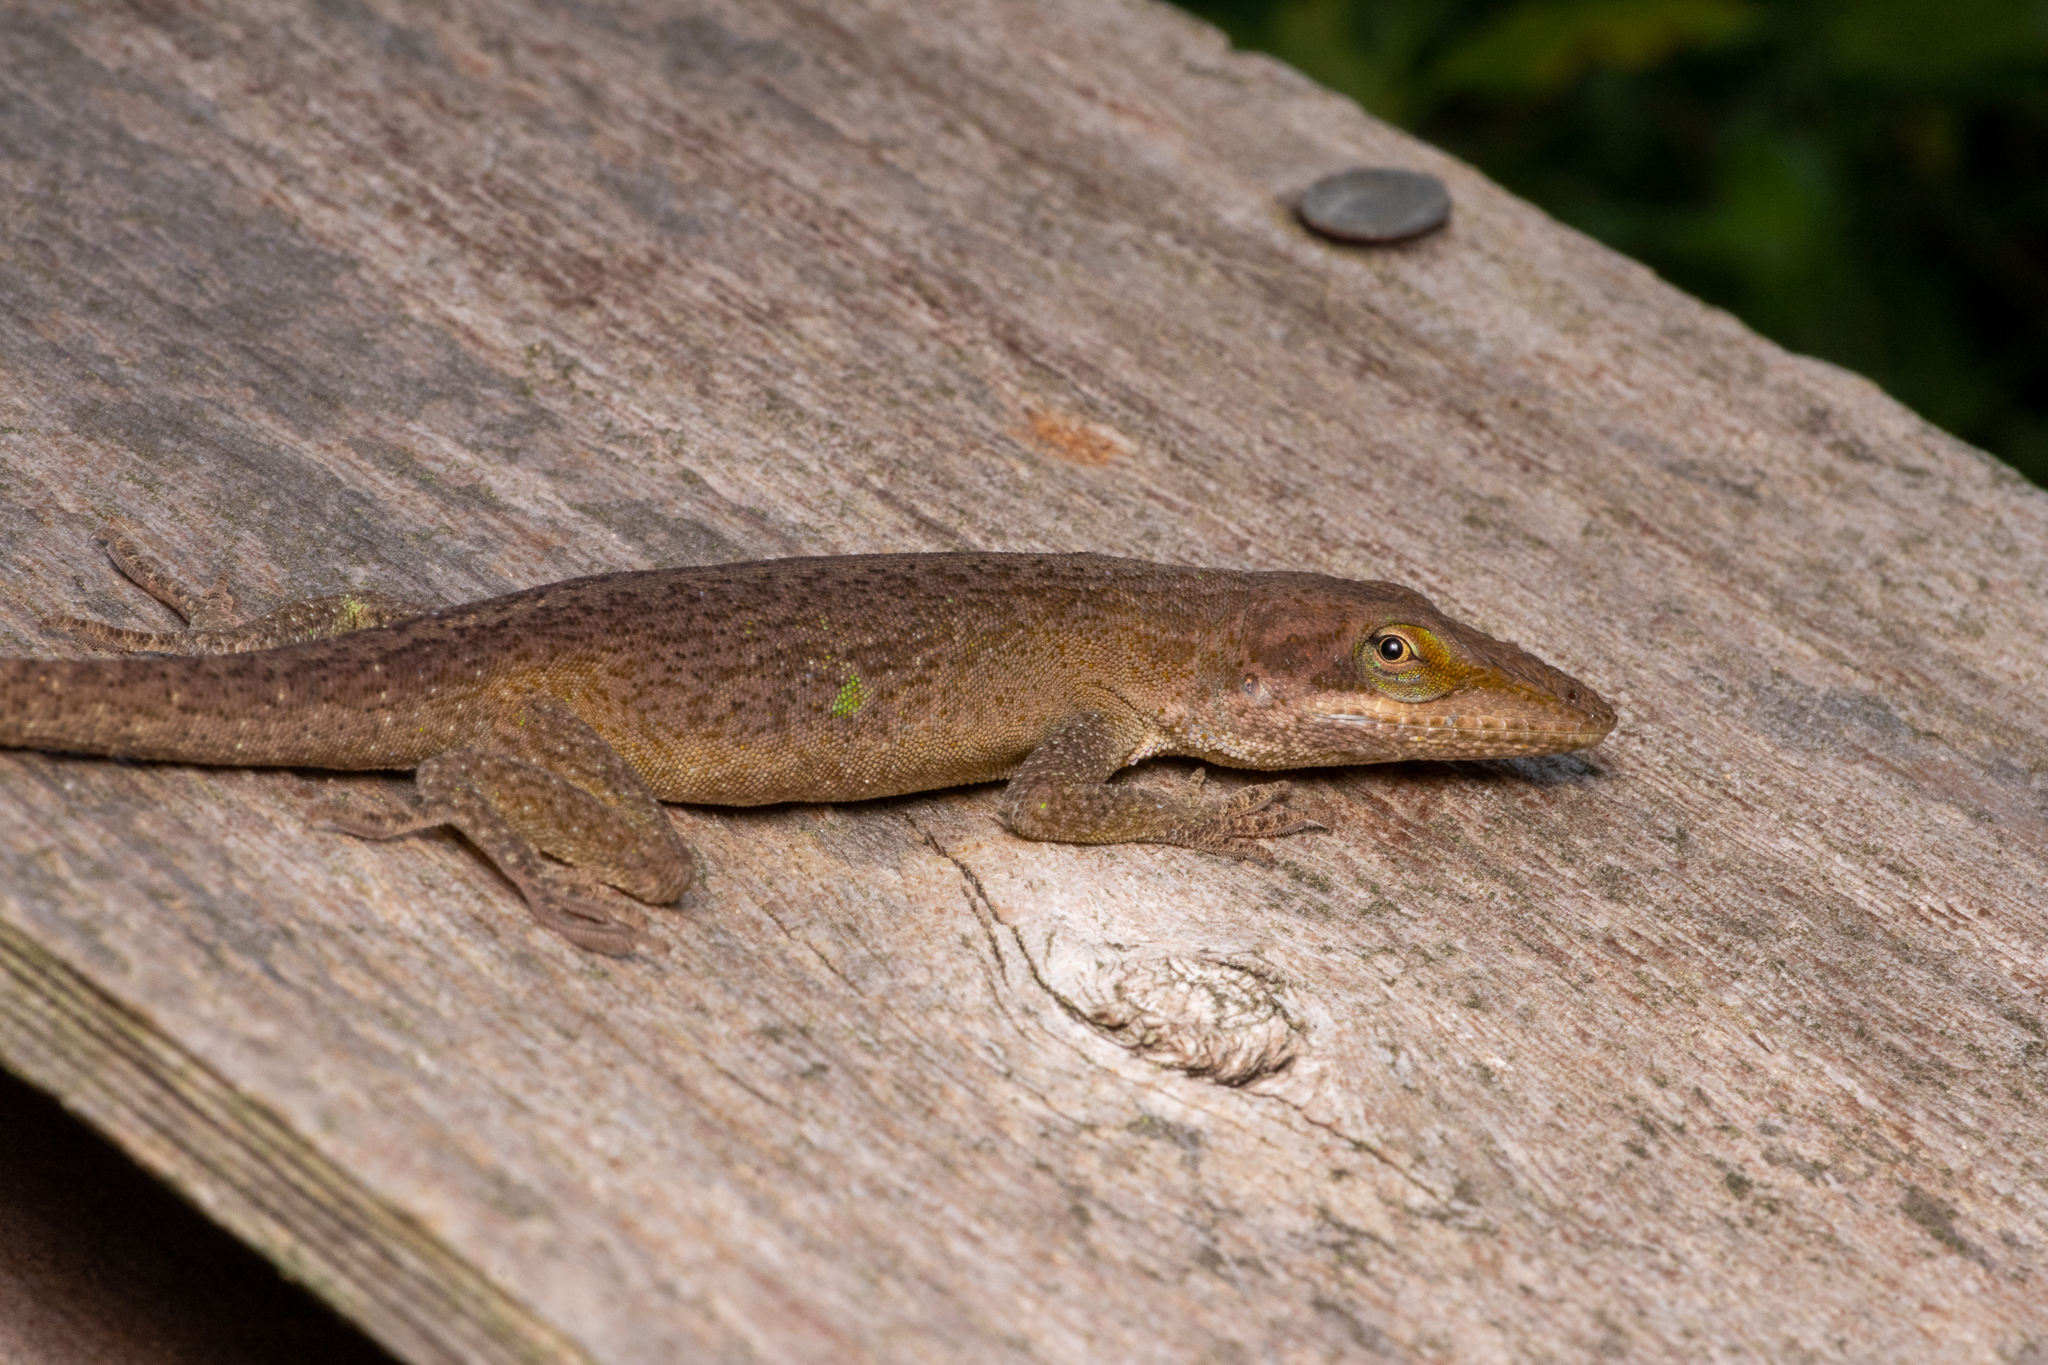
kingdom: Animalia
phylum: Chordata
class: Squamata
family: Dactyloidae
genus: Anolis
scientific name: Anolis carolinensis
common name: Green anole
